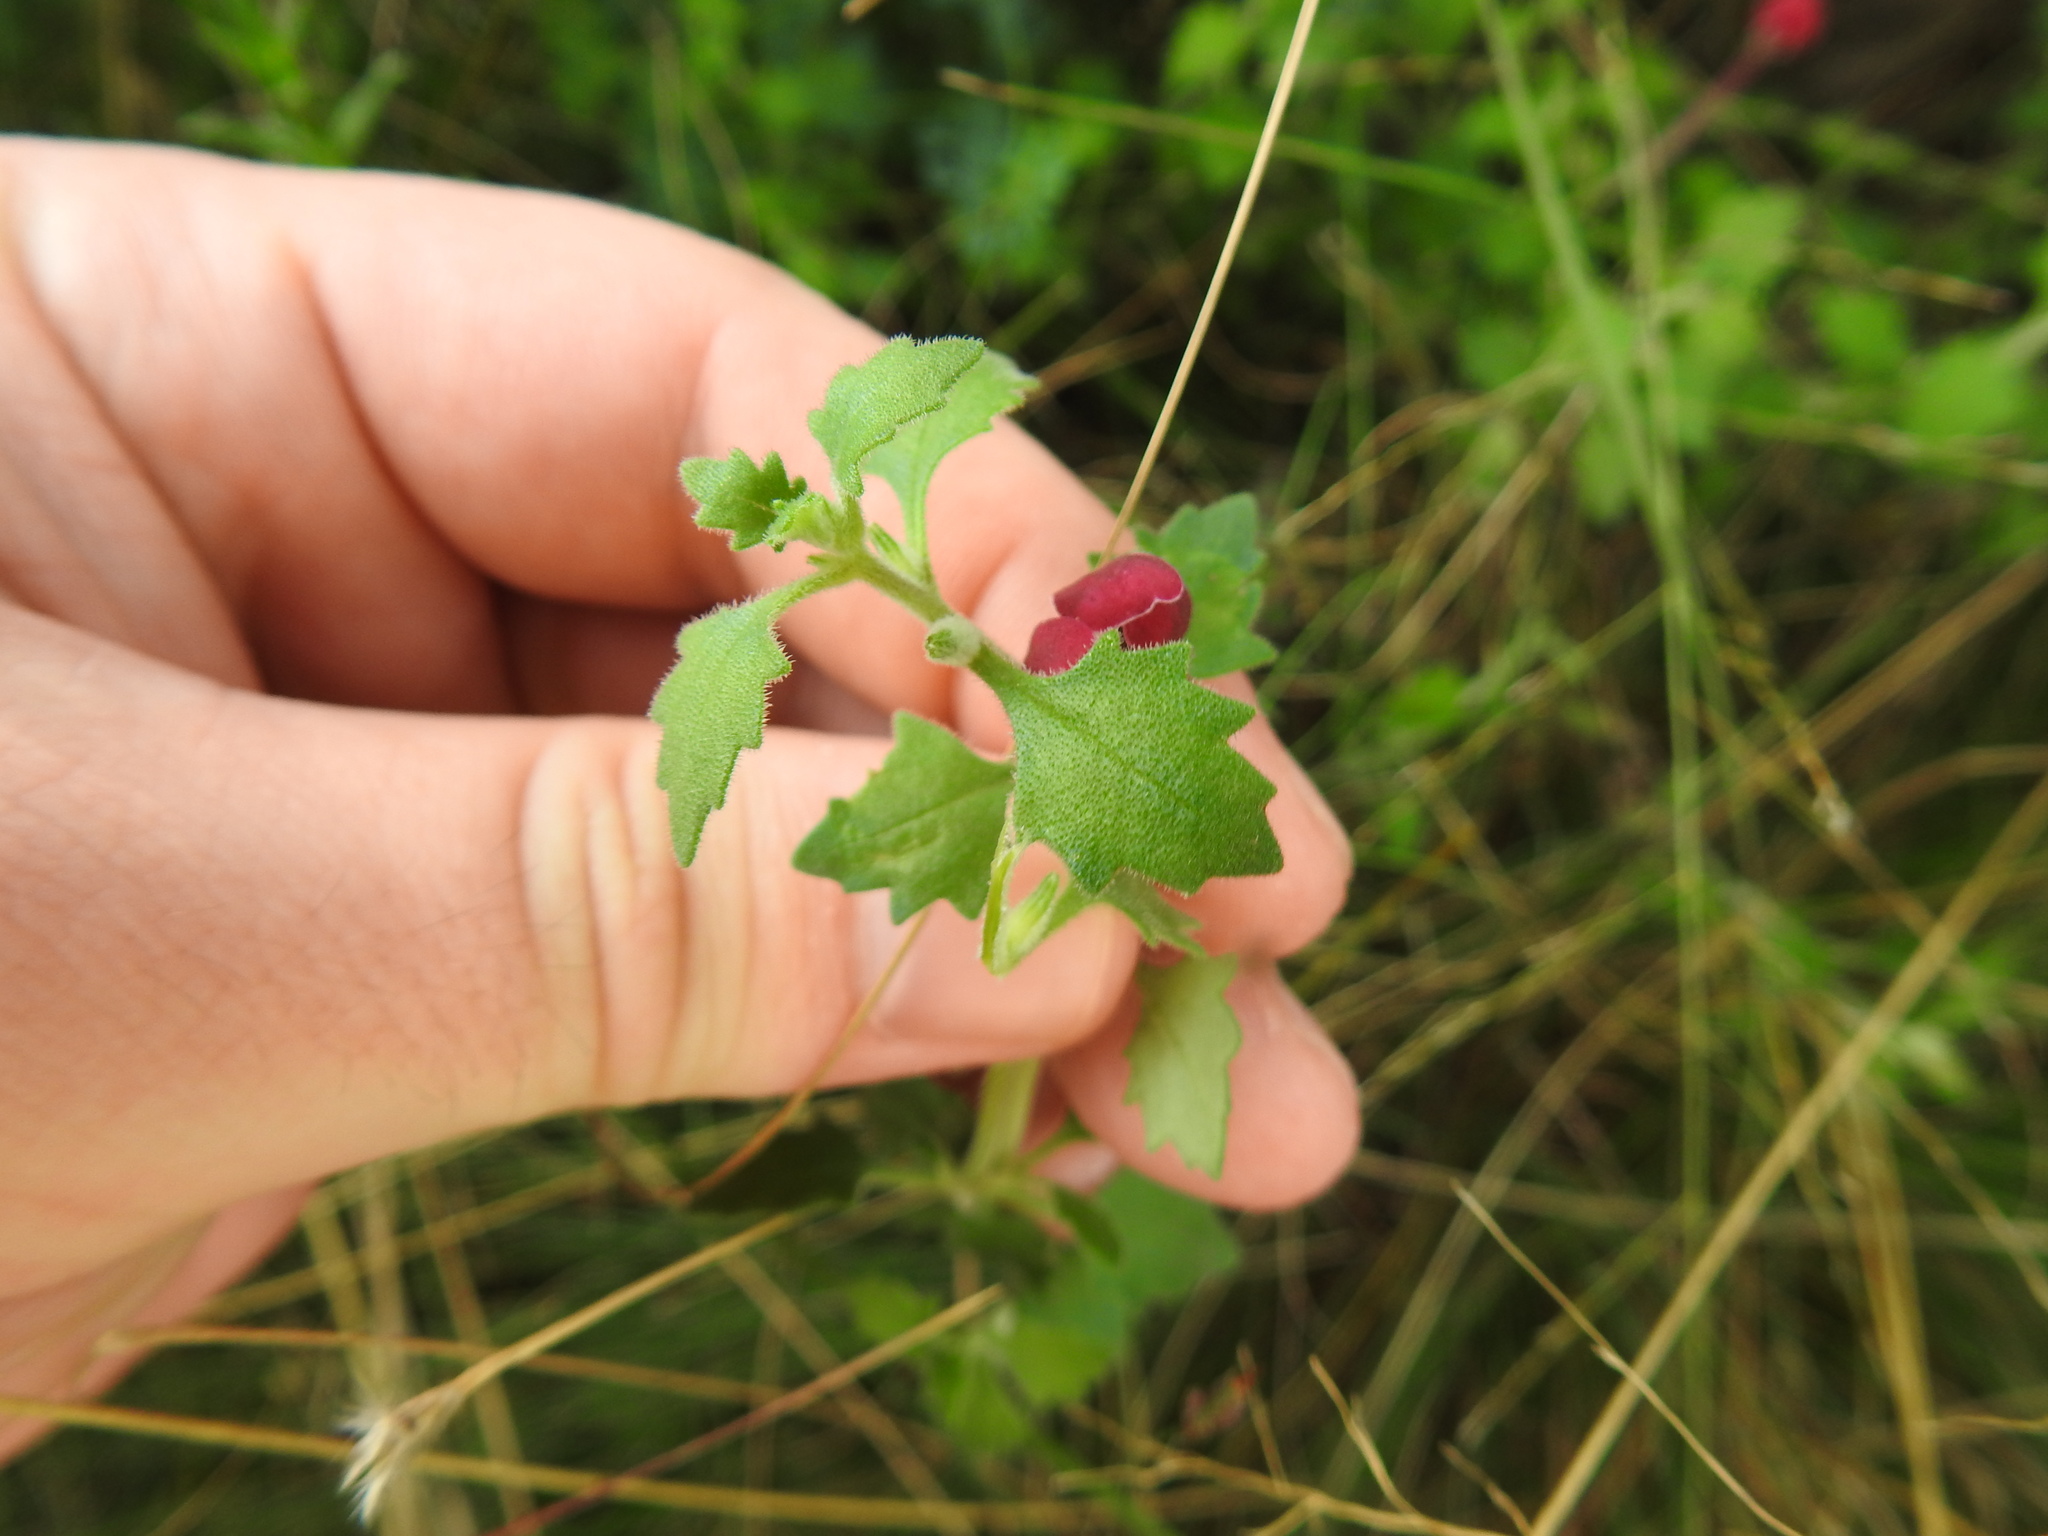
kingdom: Plantae
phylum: Tracheophyta
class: Magnoliopsida
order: Lamiales
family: Scrophulariaceae
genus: Zaluzianskya
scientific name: Zaluzianskya katharinae
